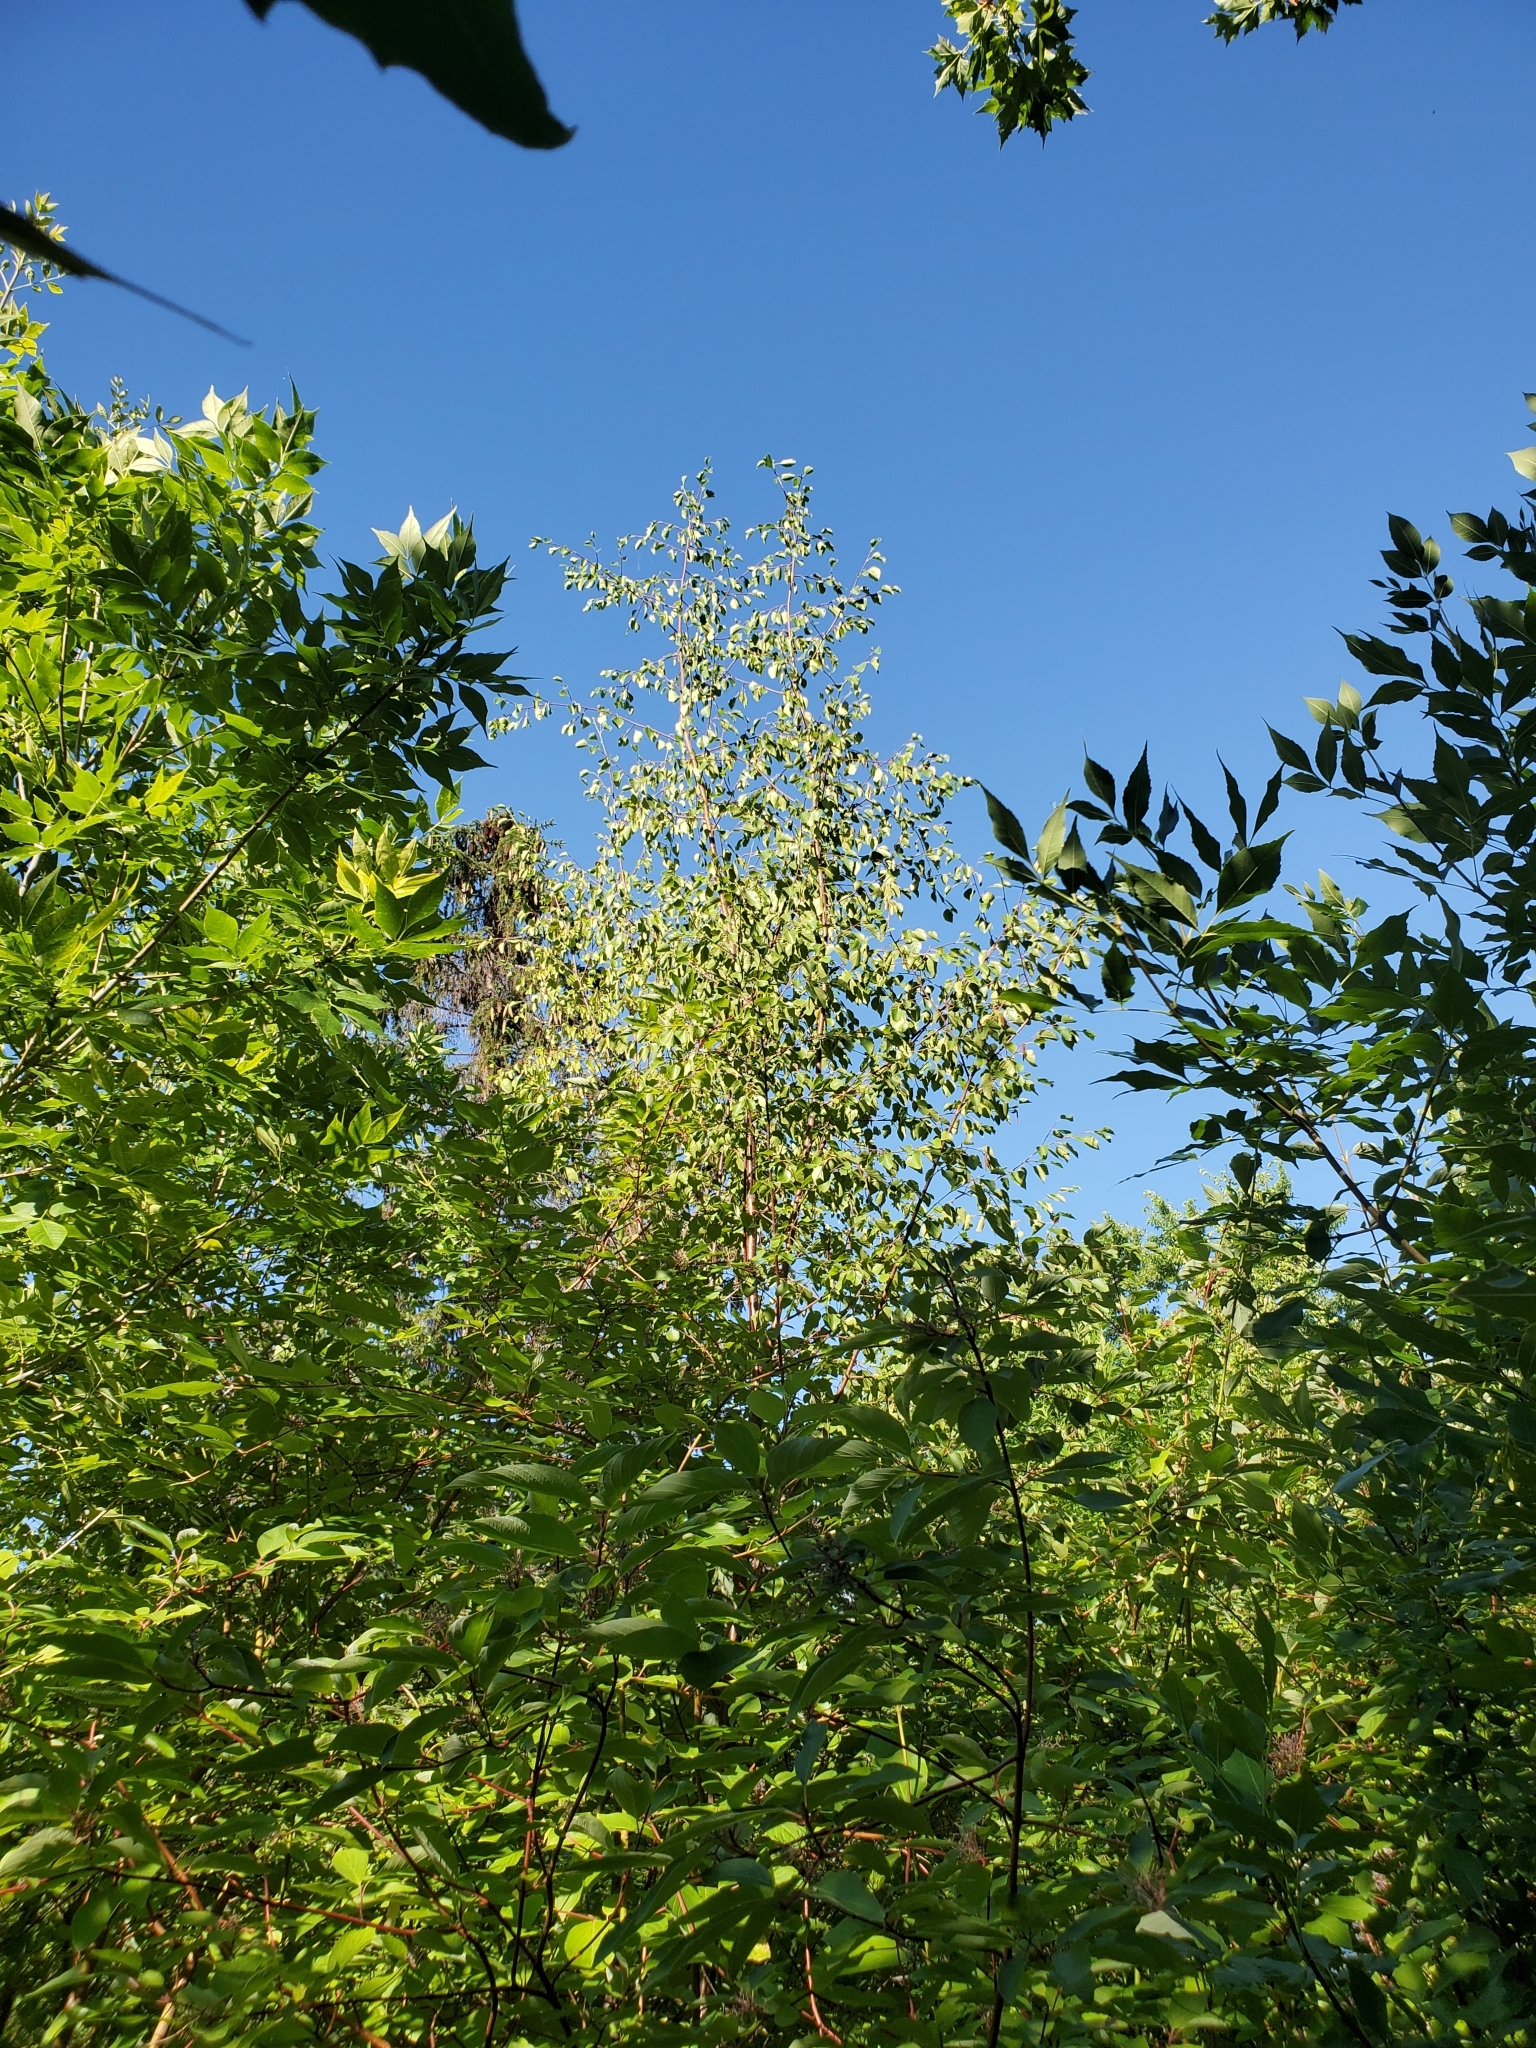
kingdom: Plantae
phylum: Tracheophyta
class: Magnoliopsida
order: Fagales
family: Betulaceae
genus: Betula
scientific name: Betula occidentalis
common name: River birch
